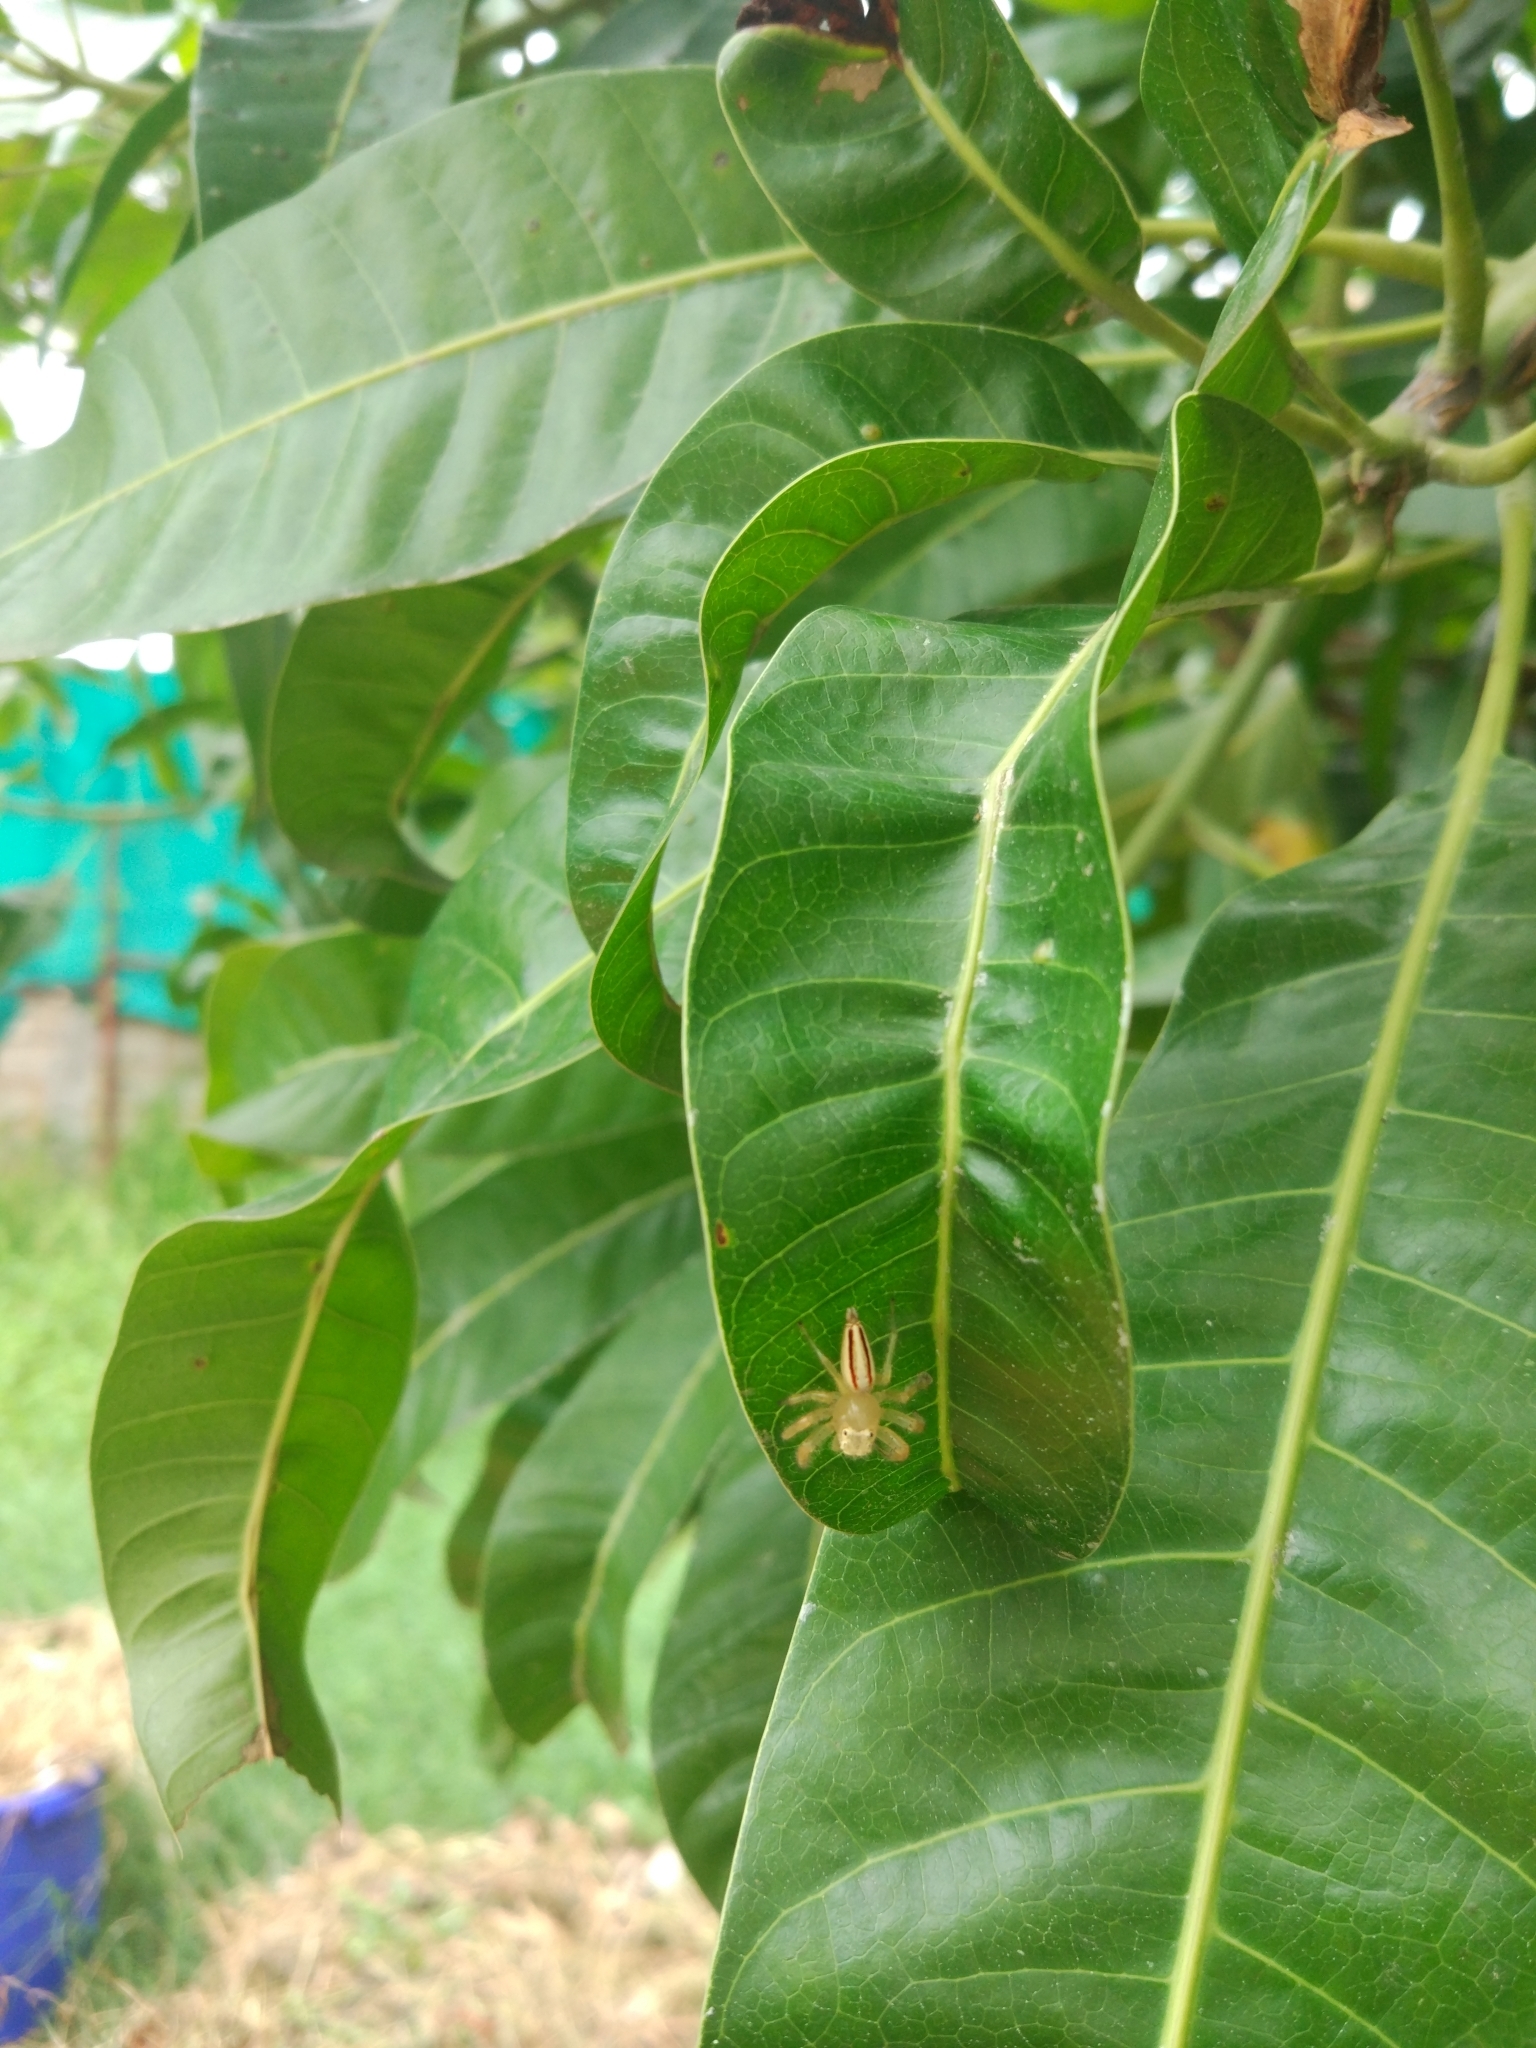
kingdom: Animalia
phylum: Arthropoda
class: Arachnida
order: Araneae
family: Salticidae
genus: Telamonia
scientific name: Telamonia dimidiata
